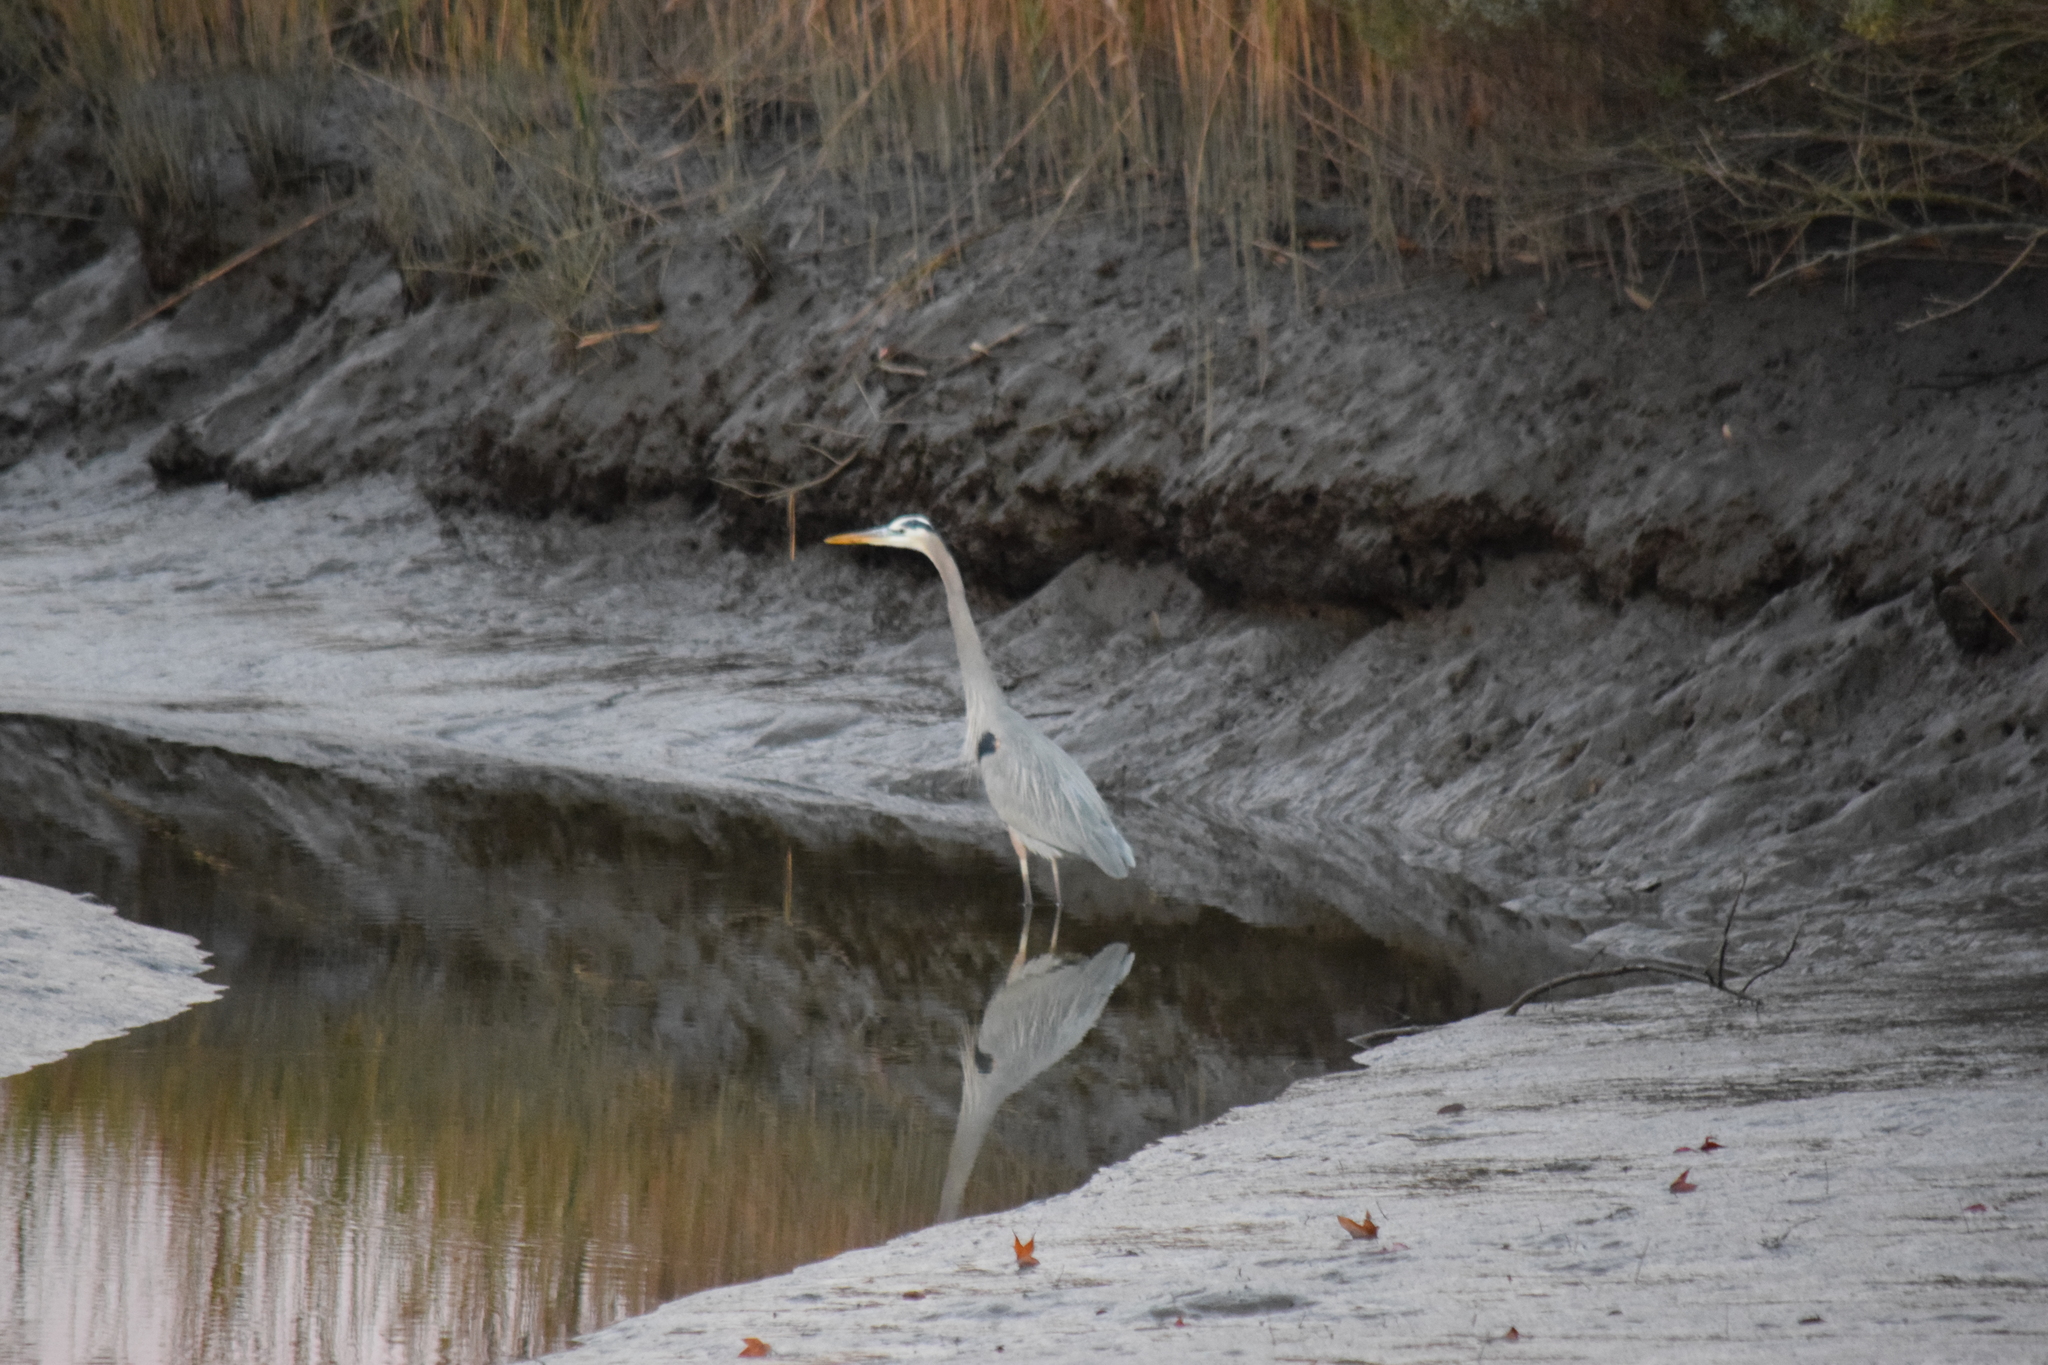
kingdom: Animalia
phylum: Chordata
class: Aves
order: Pelecaniformes
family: Ardeidae
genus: Ardea
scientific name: Ardea herodias
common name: Great blue heron
